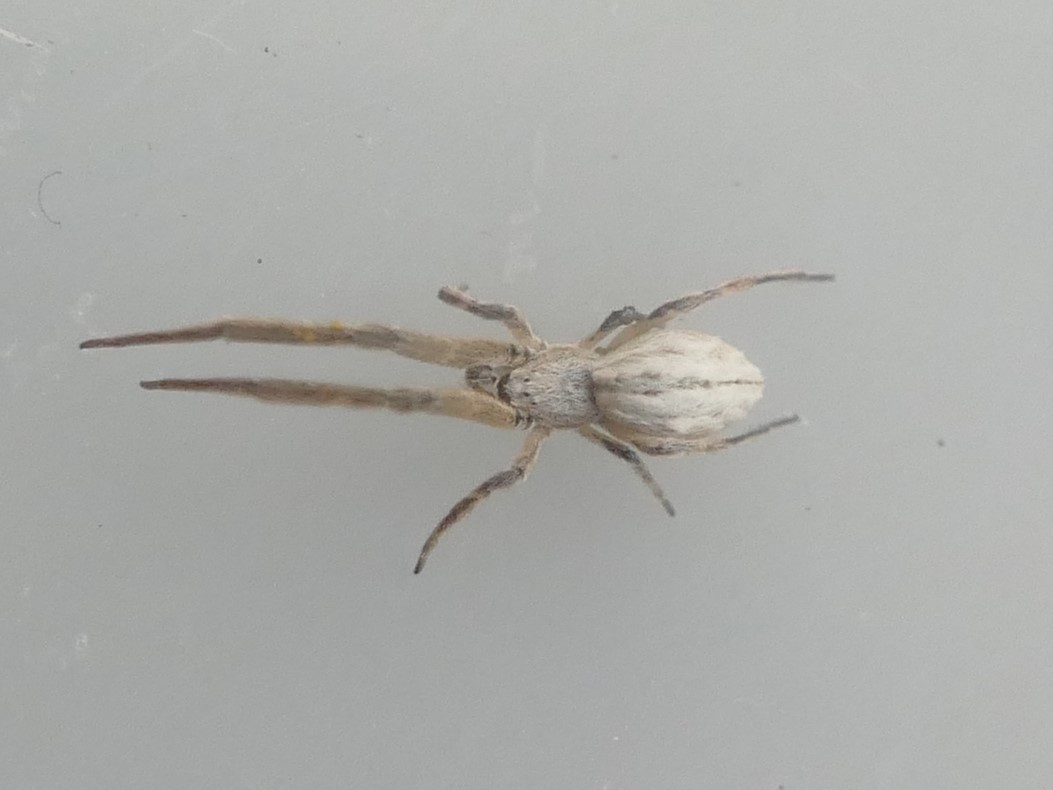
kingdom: Animalia
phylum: Arthropoda
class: Arachnida
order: Araneae
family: Uloboridae
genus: Uloborus
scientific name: Uloborus walckenaerius
